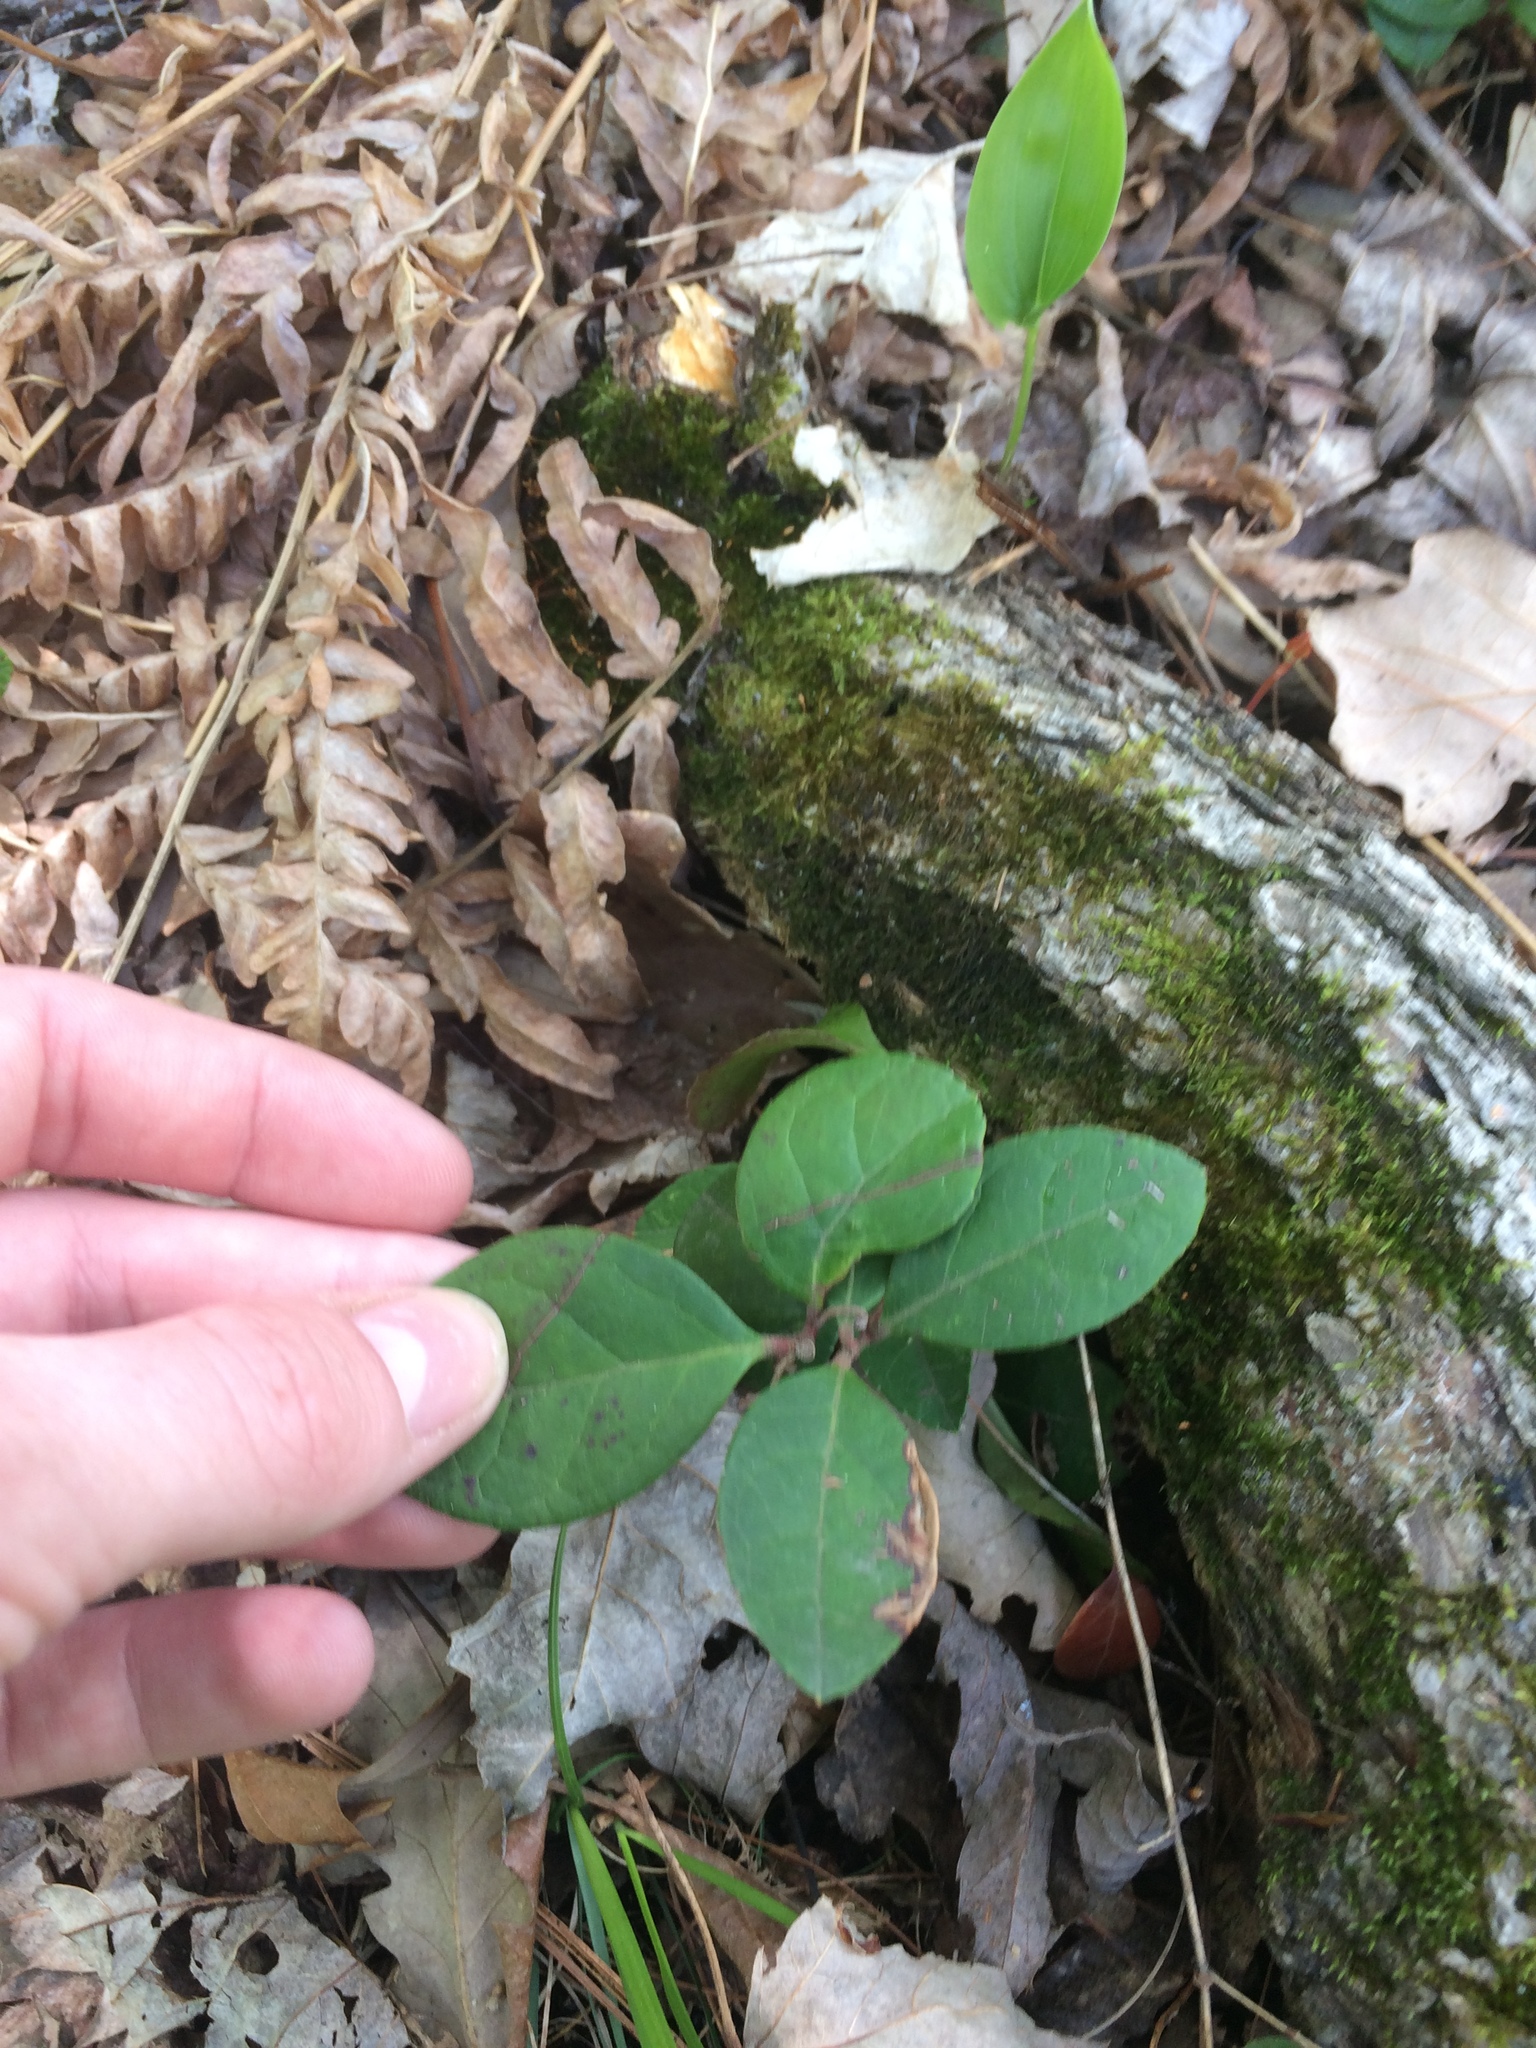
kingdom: Plantae
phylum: Tracheophyta
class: Magnoliopsida
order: Ericales
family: Ericaceae
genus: Gaultheria
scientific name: Gaultheria procumbens
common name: Checkerberry
